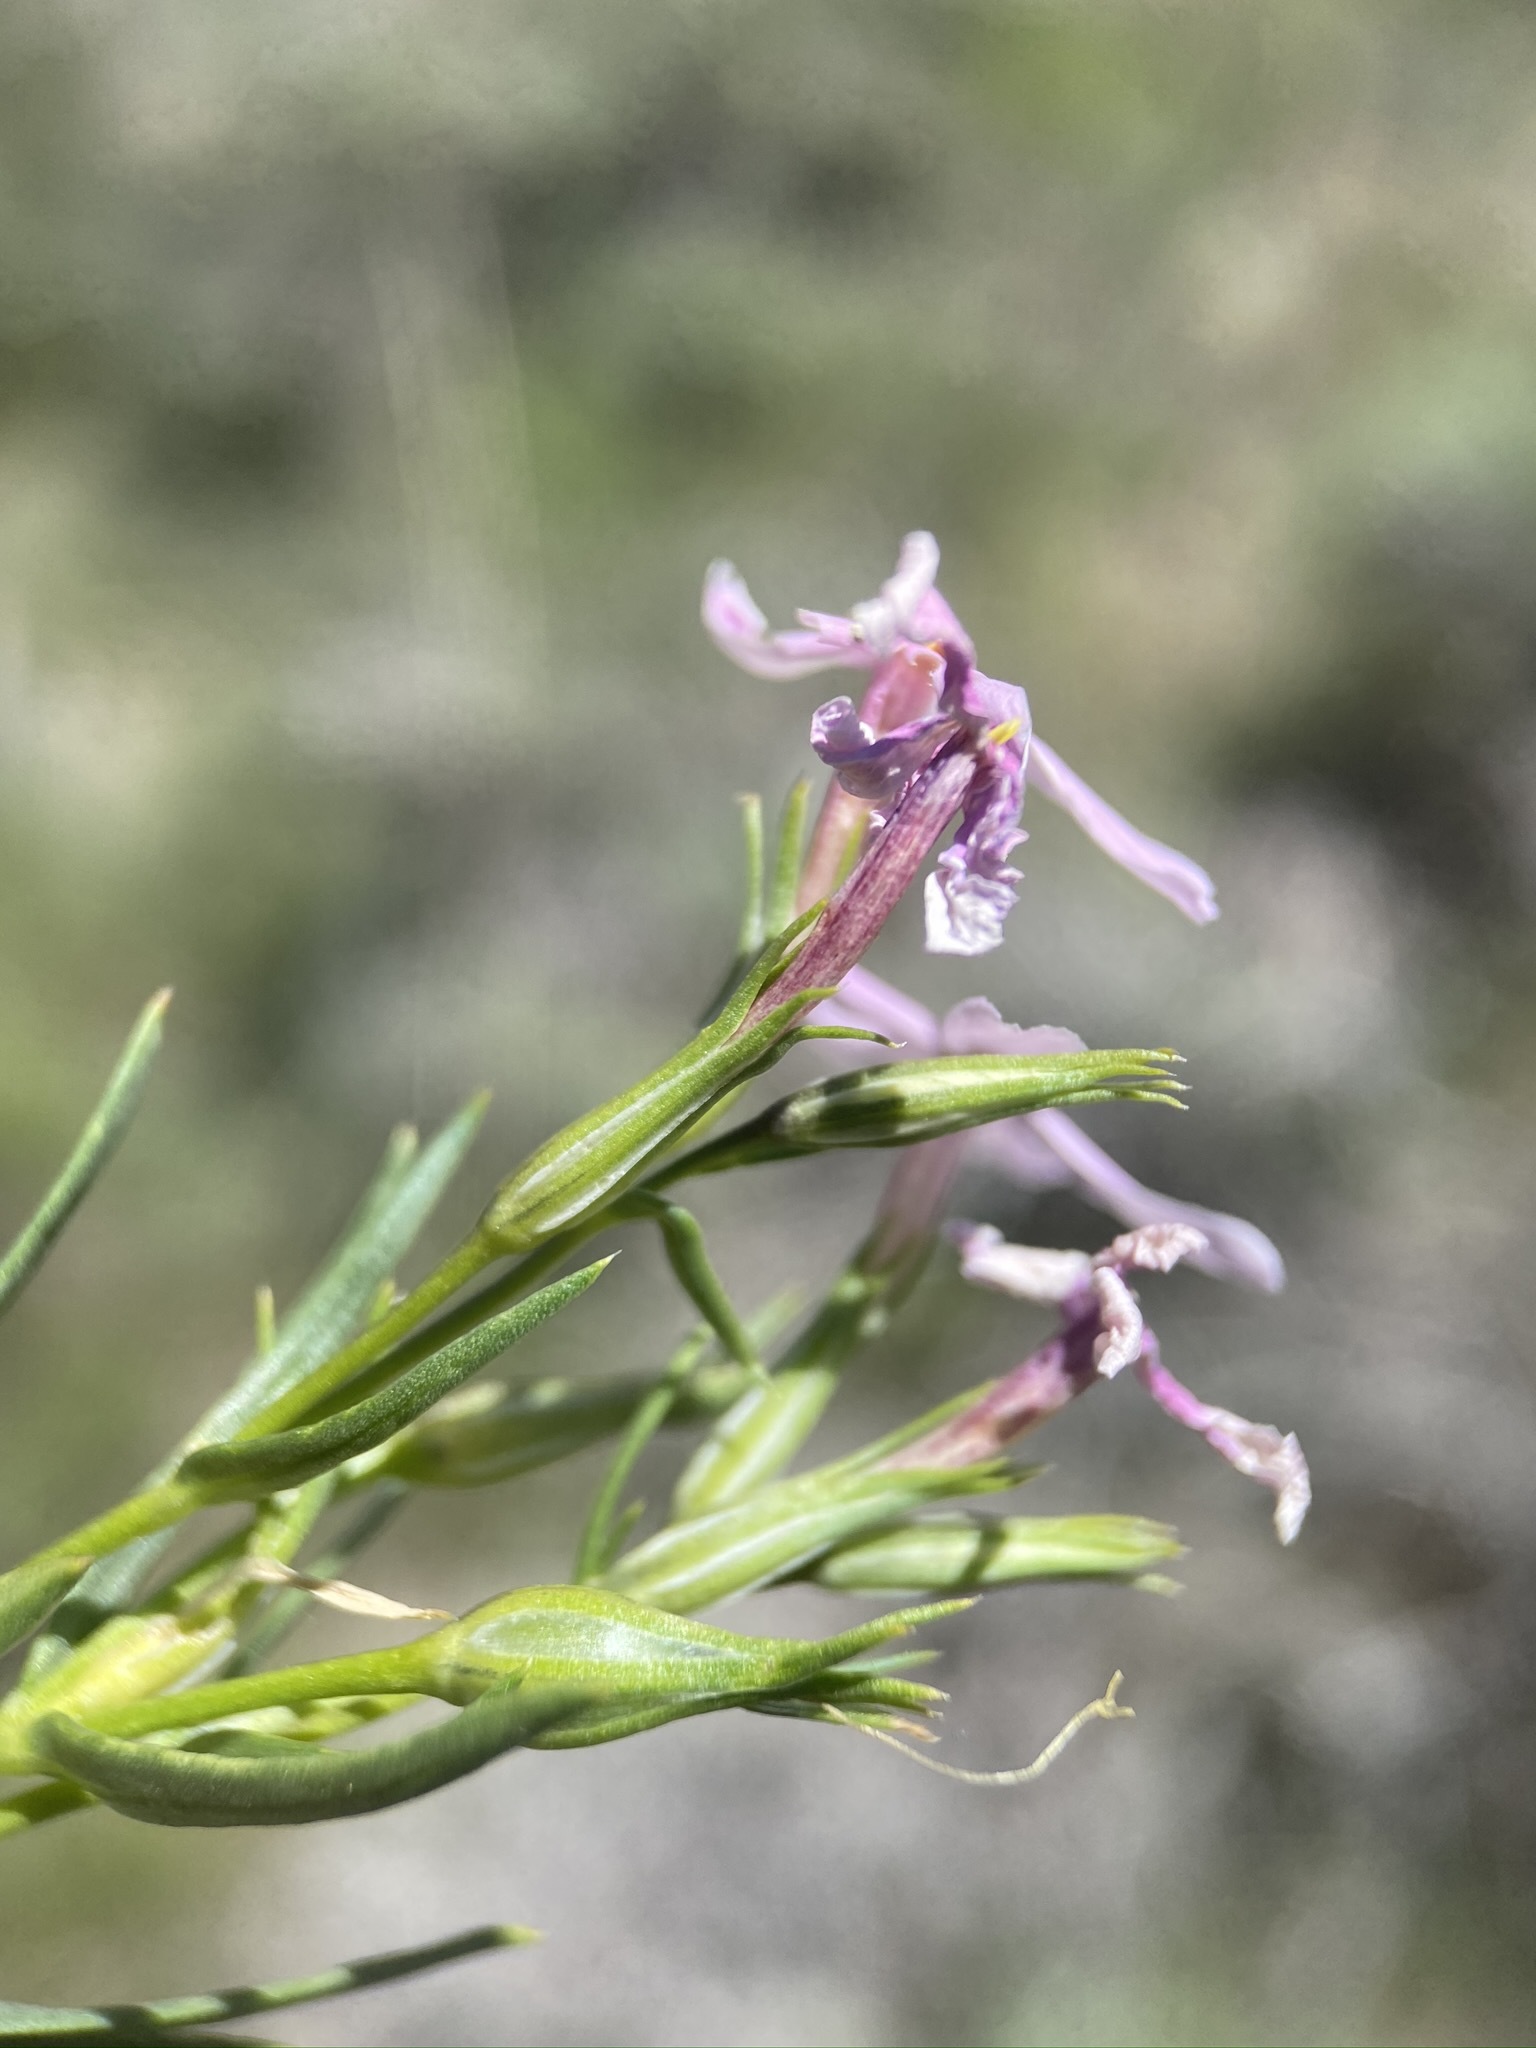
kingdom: Plantae
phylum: Tracheophyta
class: Magnoliopsida
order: Ericales
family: Polemoniaceae
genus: Phlox
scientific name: Phlox longifolia
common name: Longleaf phlox
